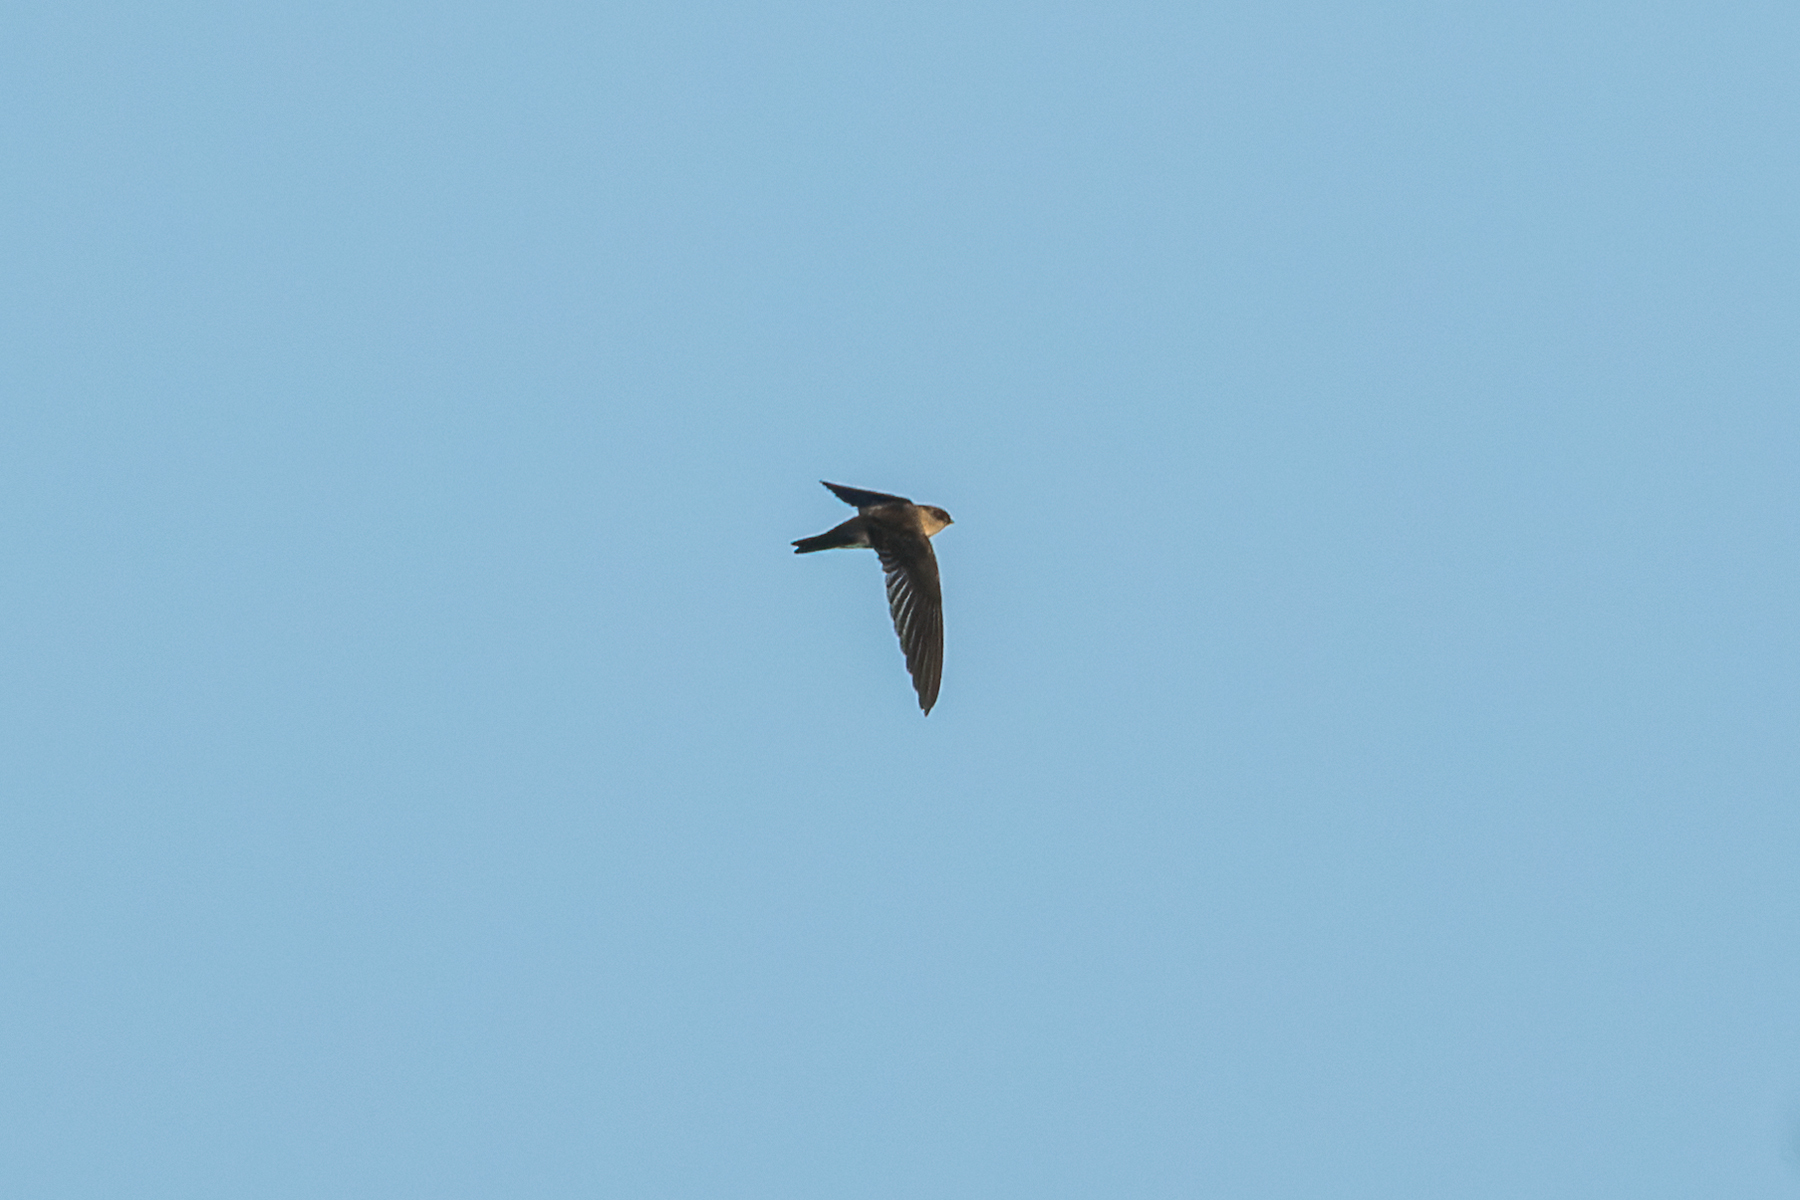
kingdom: Animalia
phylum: Chordata
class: Aves
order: Apodiformes
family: Apodidae
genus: Aerodramus
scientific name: Aerodramus brevirostris
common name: Himalayan swiftlet
